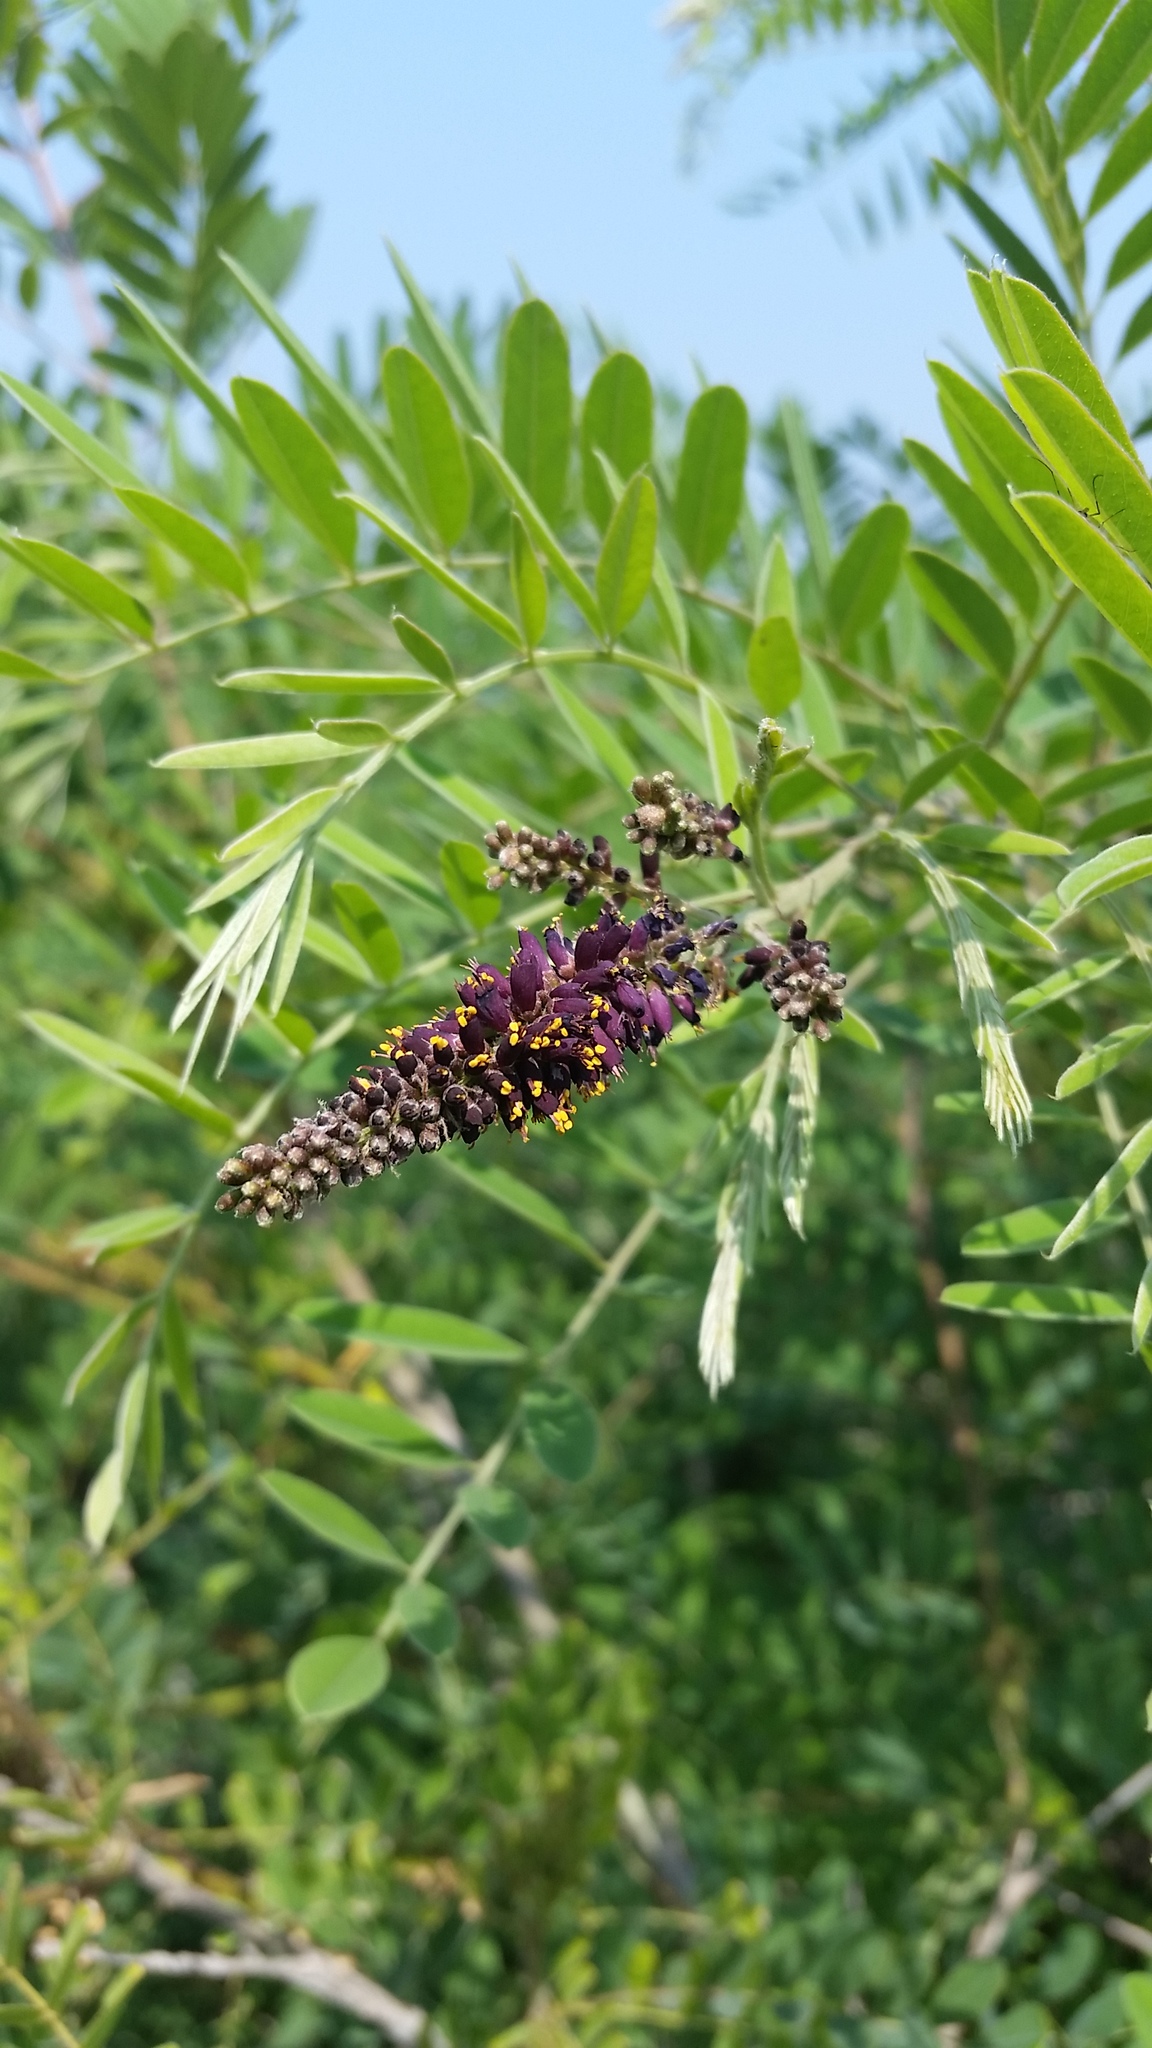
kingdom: Plantae
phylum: Tracheophyta
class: Magnoliopsida
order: Fabales
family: Fabaceae
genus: Amorpha
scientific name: Amorpha fruticosa
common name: False indigo
